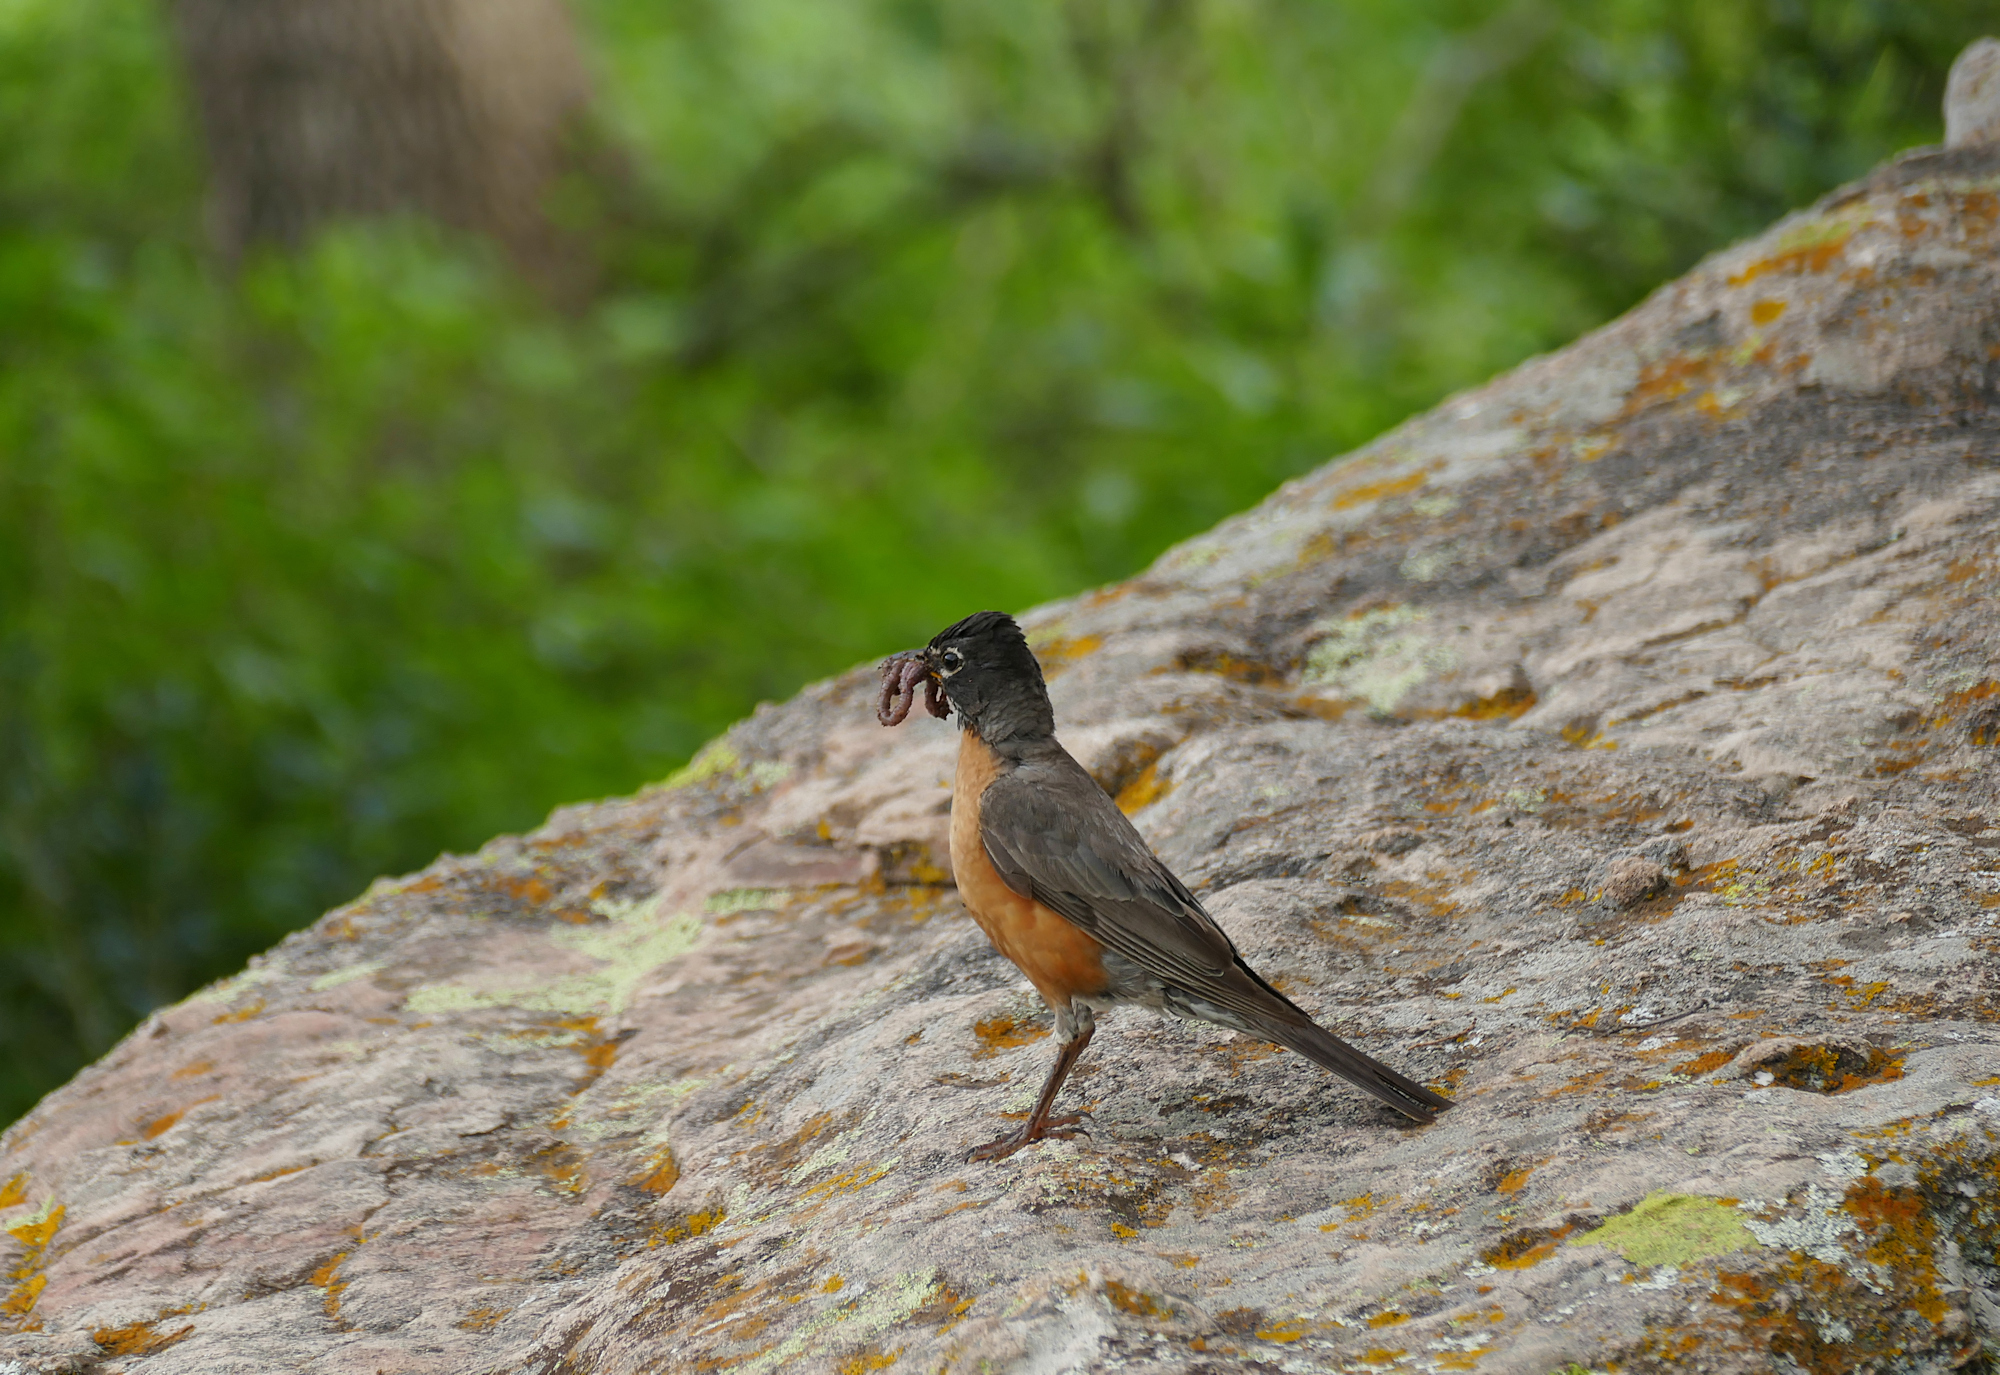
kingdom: Animalia
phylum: Chordata
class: Aves
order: Passeriformes
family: Turdidae
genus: Turdus
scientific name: Turdus migratorius
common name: American robin
